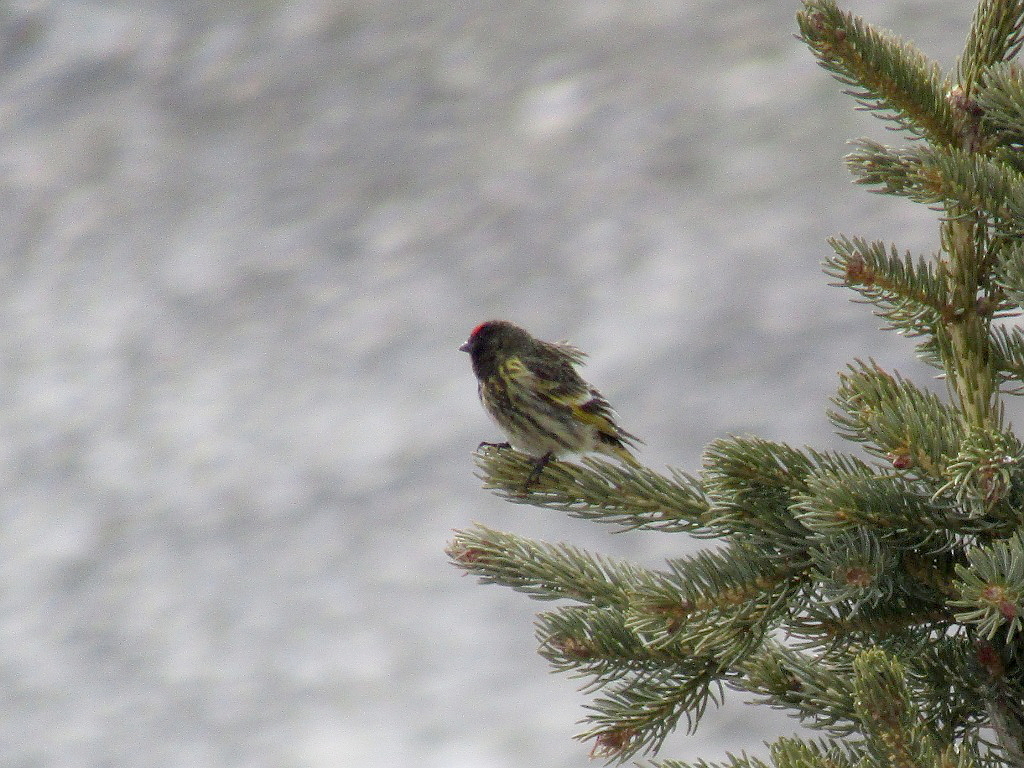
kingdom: Animalia
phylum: Chordata
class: Aves
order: Passeriformes
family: Fringillidae
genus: Serinus
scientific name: Serinus pusillus
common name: Red-fronted serin
